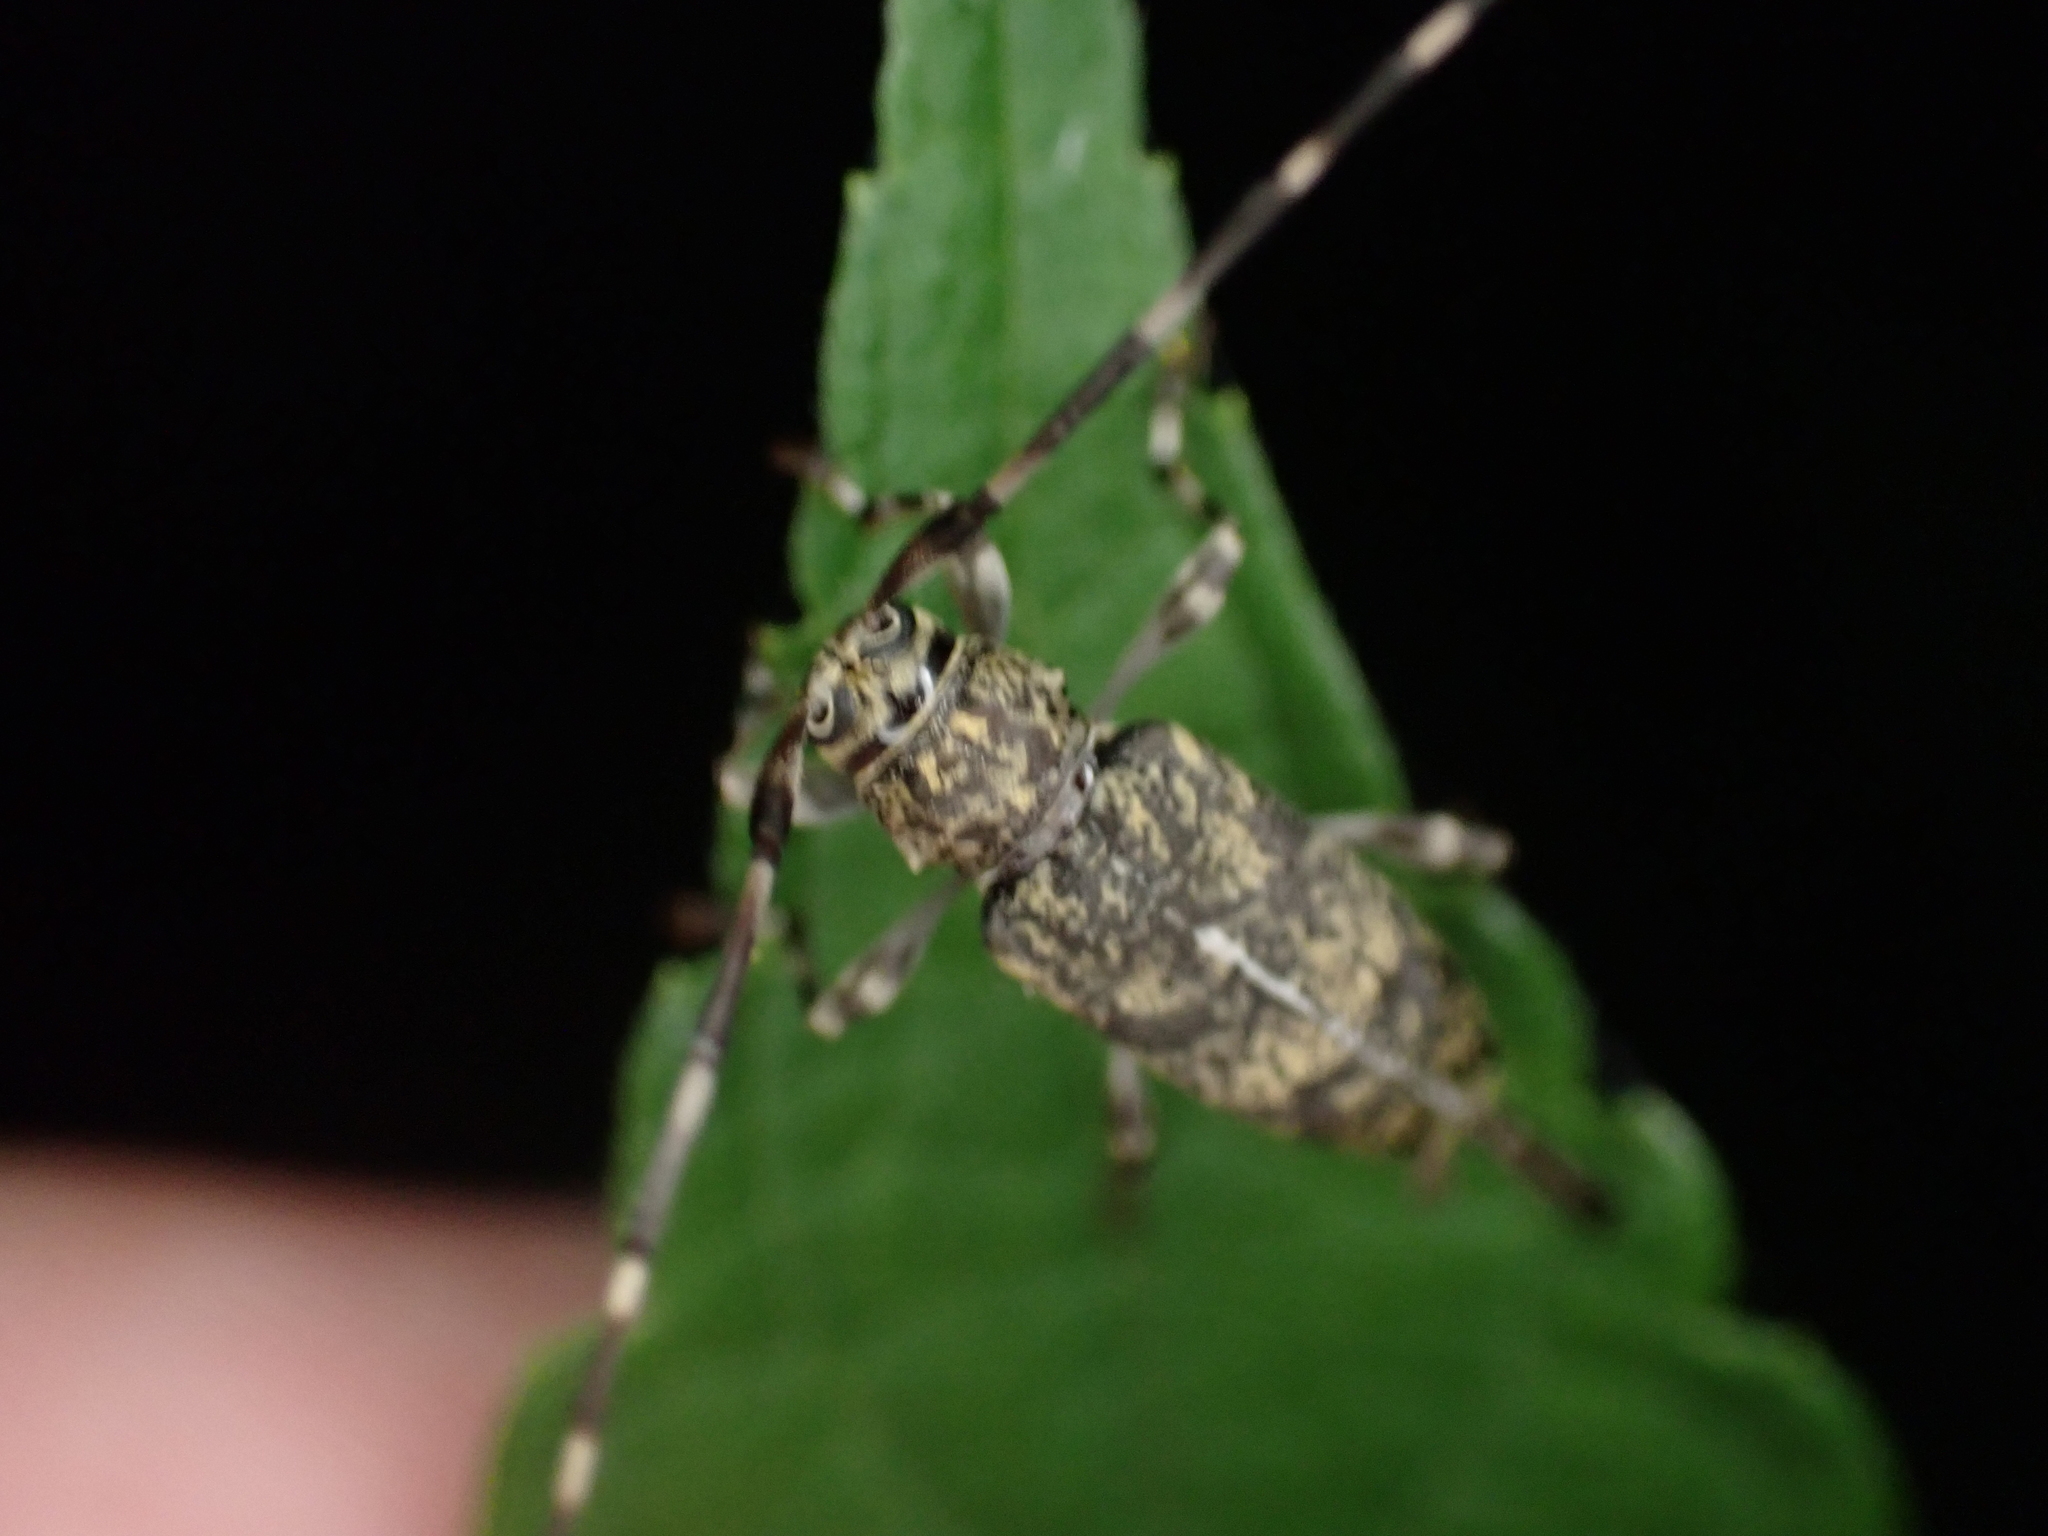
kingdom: Animalia
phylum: Arthropoda
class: Insecta
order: Coleoptera
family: Cerambycidae
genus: Graphisurus
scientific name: Graphisurus fasciatus
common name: Banded graphisurus
